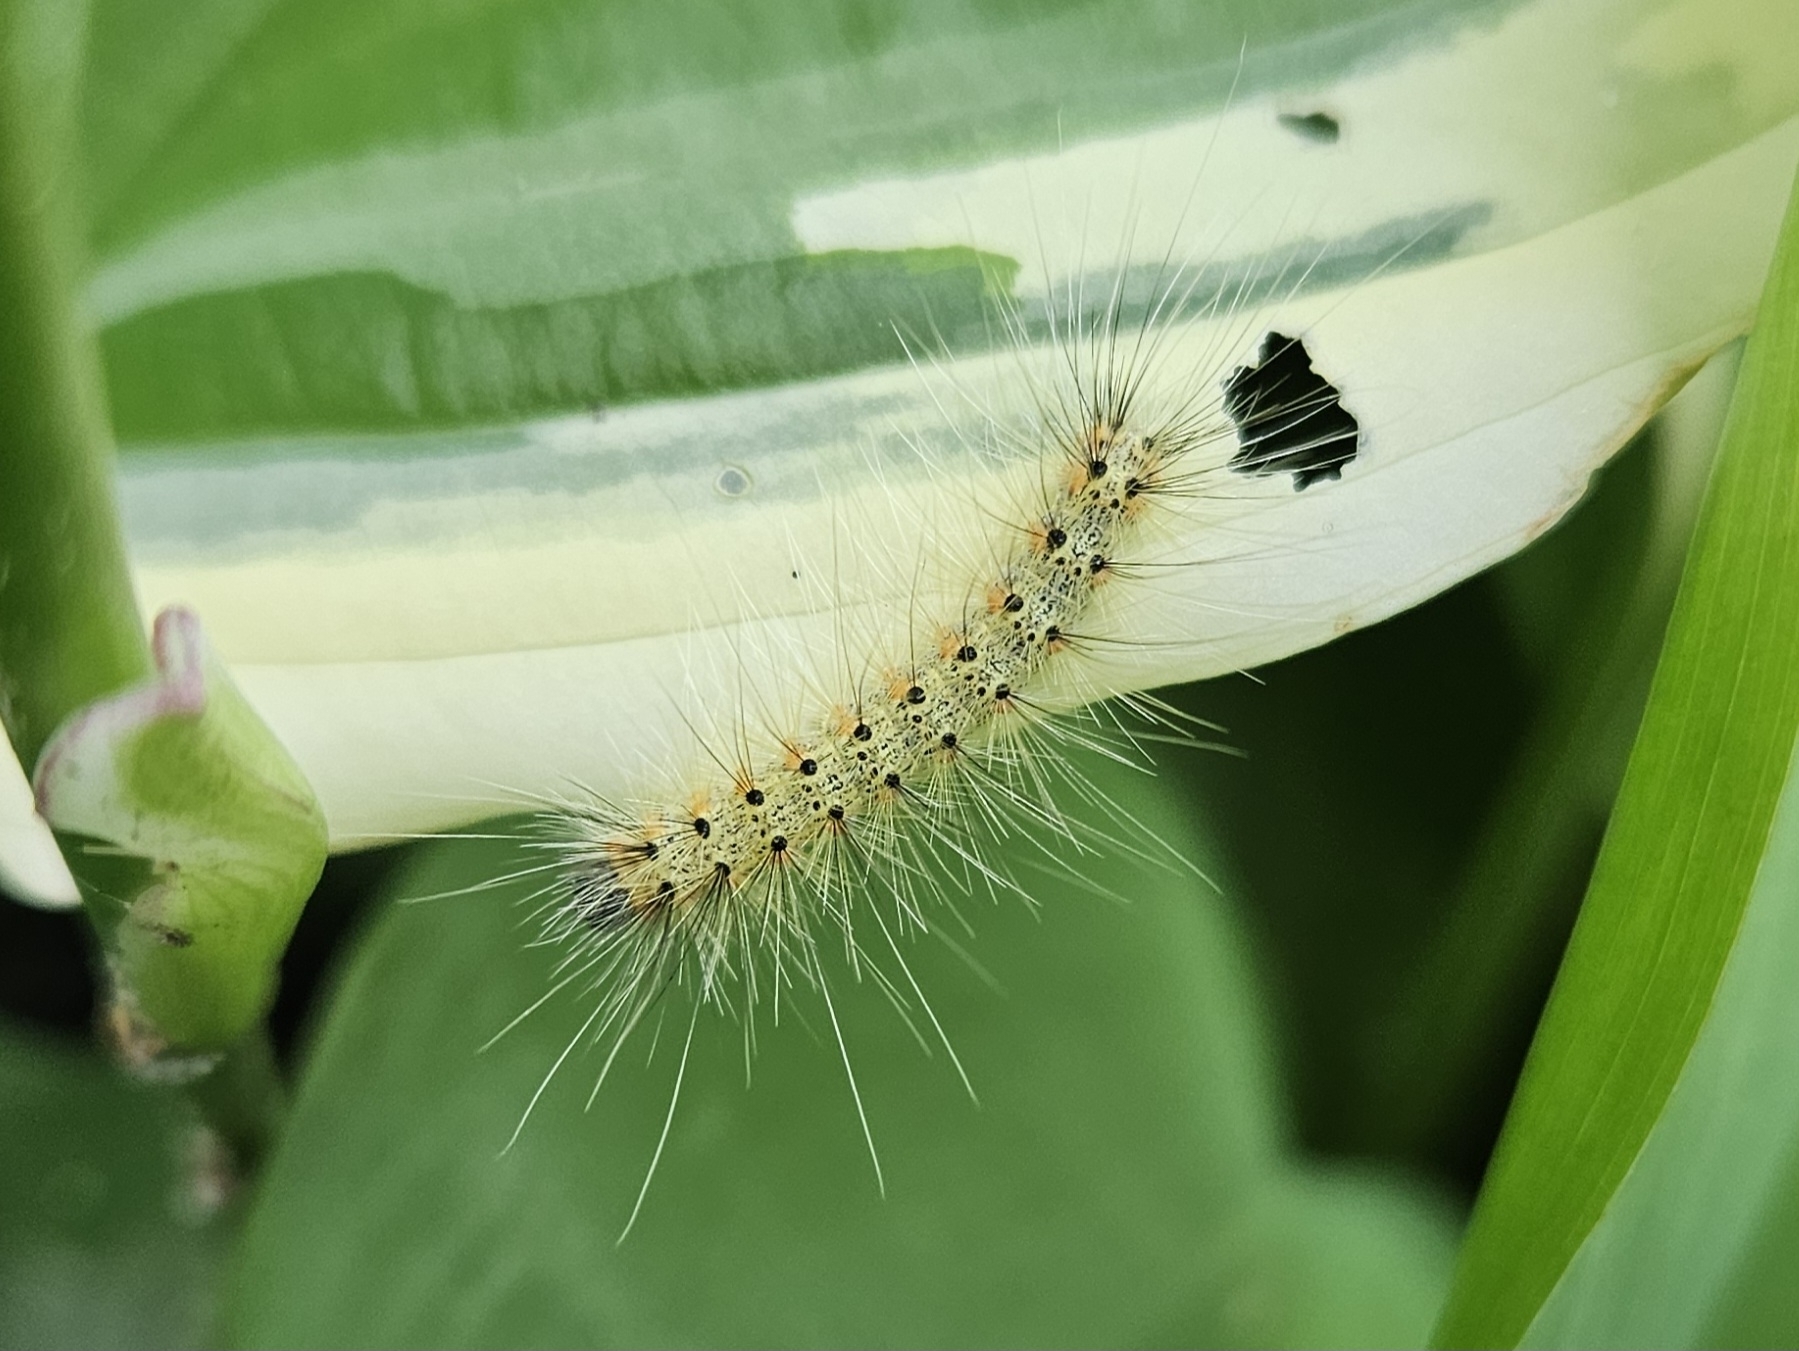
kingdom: Animalia
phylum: Arthropoda
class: Insecta
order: Lepidoptera
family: Erebidae
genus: Hyphantria
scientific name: Hyphantria cunea
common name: American white moth
